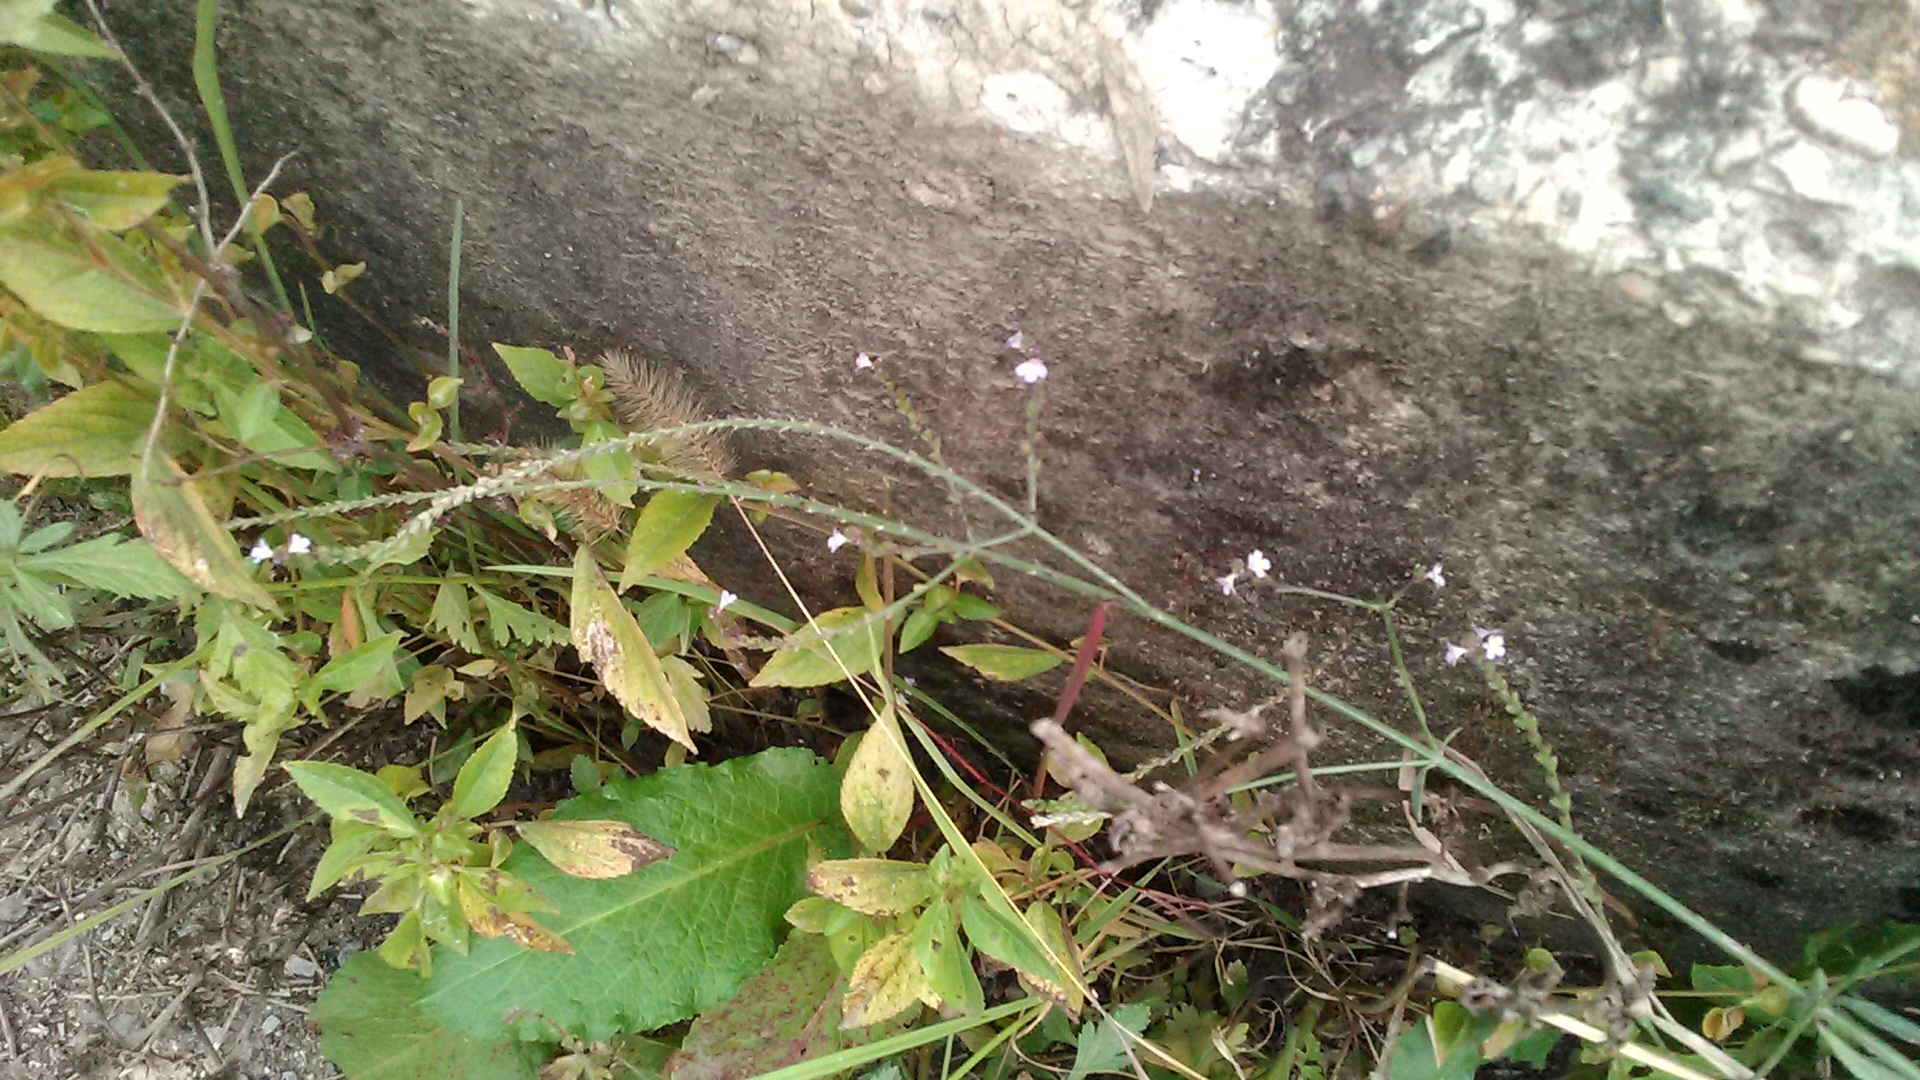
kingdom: Plantae
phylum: Tracheophyta
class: Magnoliopsida
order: Lamiales
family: Verbenaceae
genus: Verbena
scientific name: Verbena officinalis
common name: Vervain
